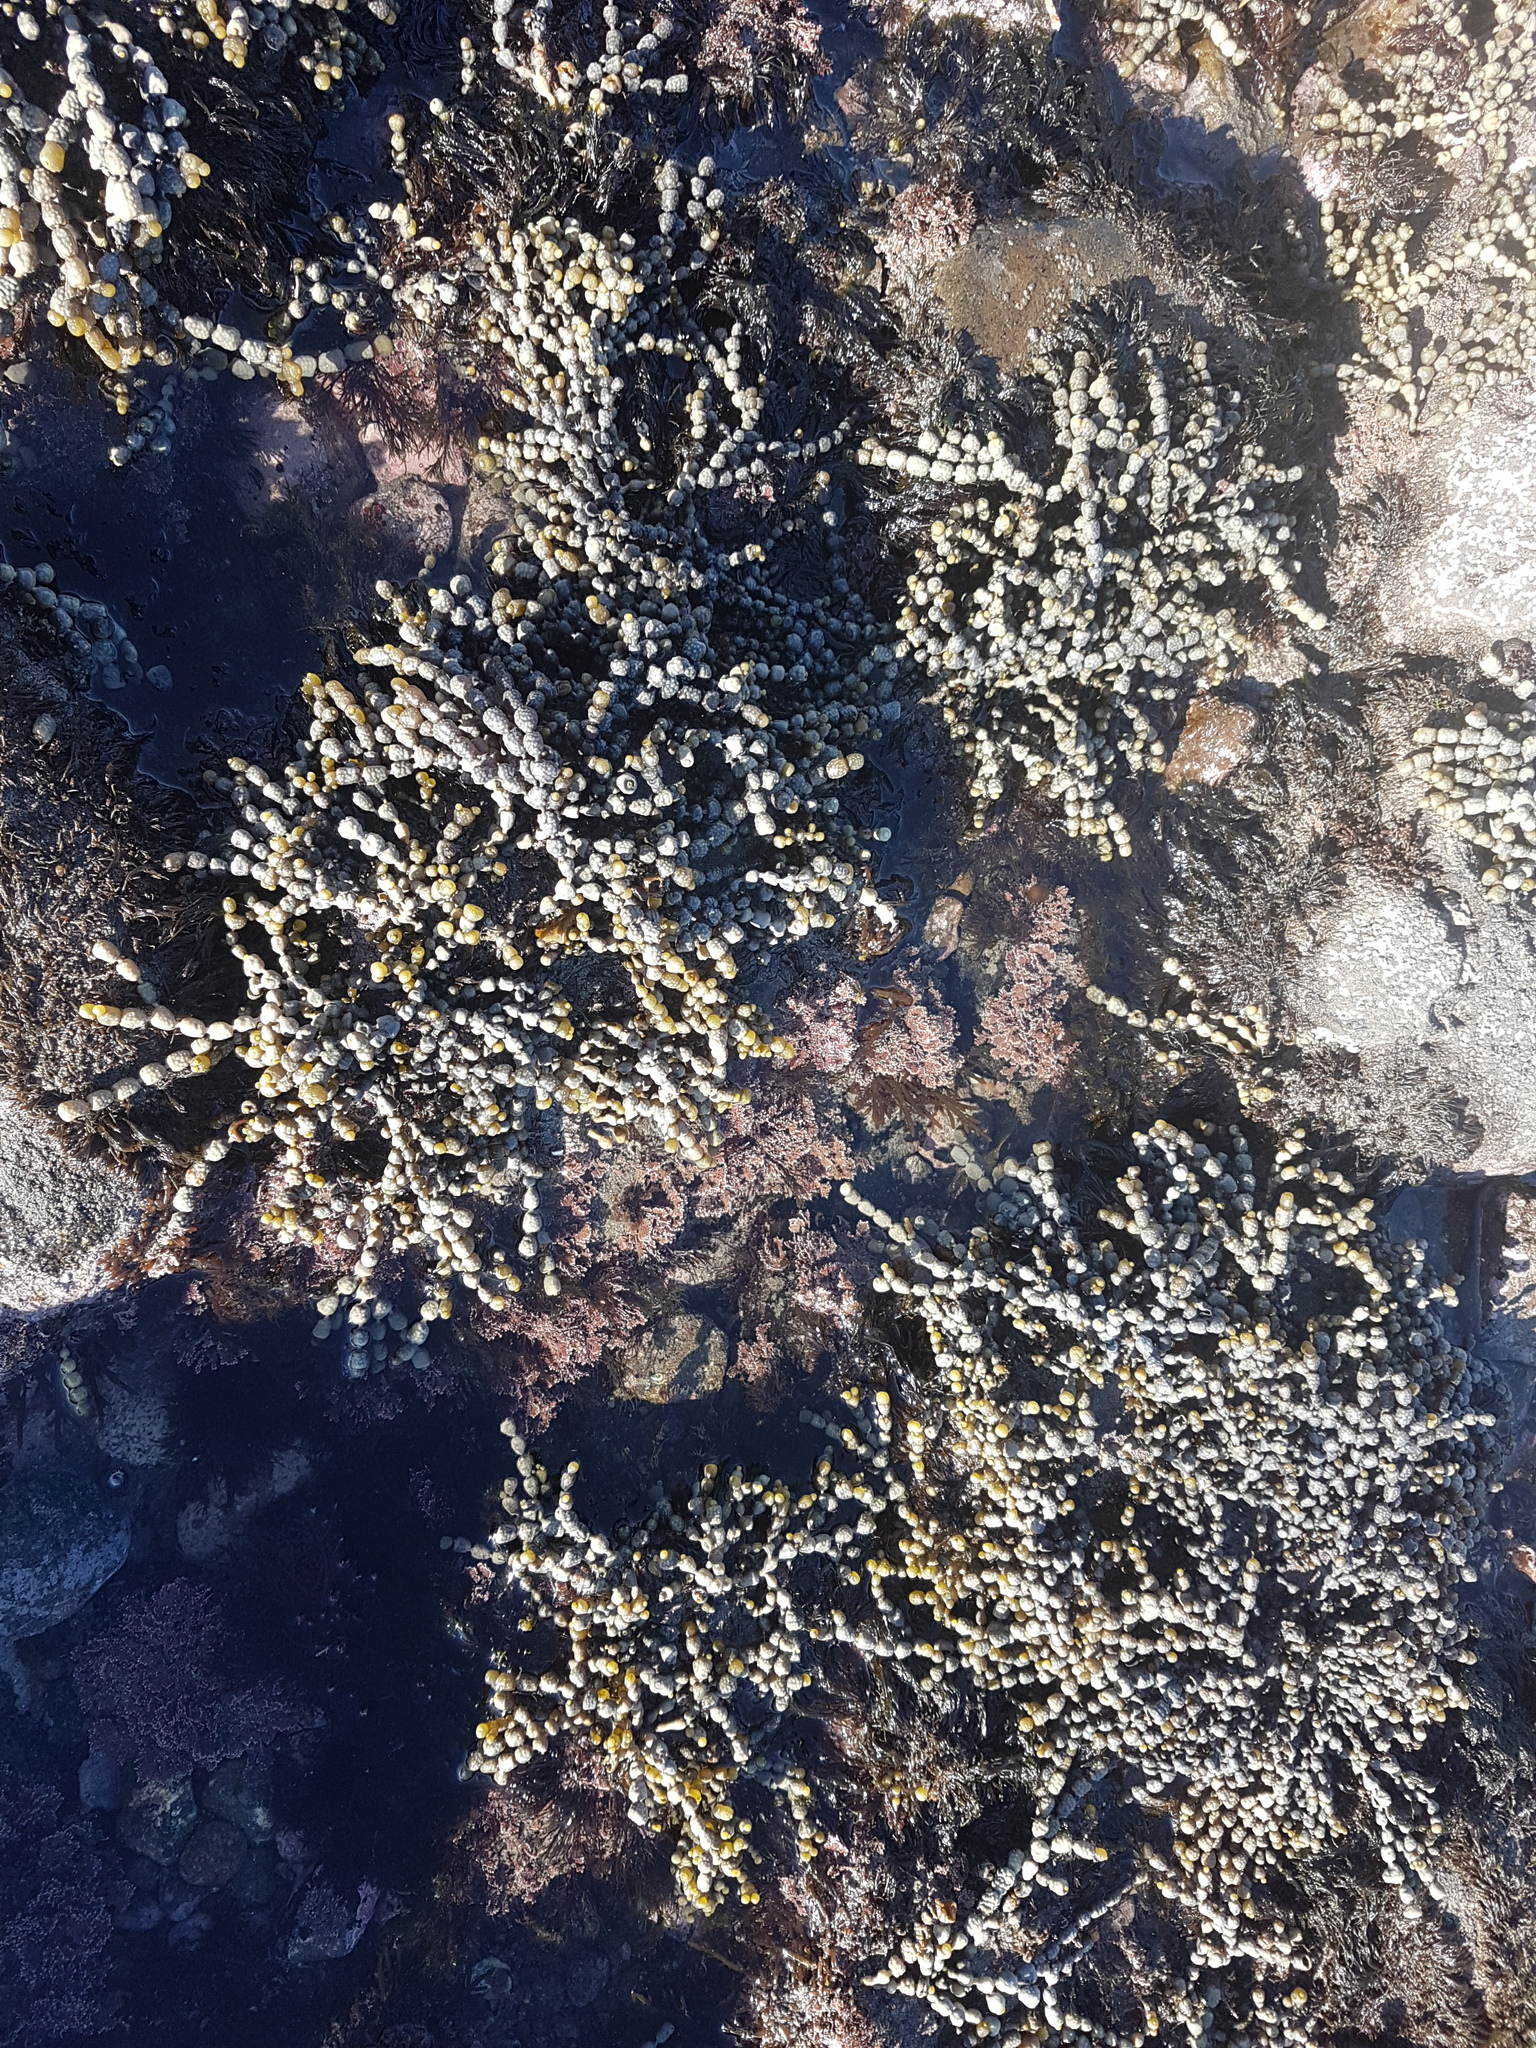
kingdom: Chromista
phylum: Ochrophyta
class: Phaeophyceae
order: Fucales
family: Hormosiraceae
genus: Hormosira
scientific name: Hormosira banksii
